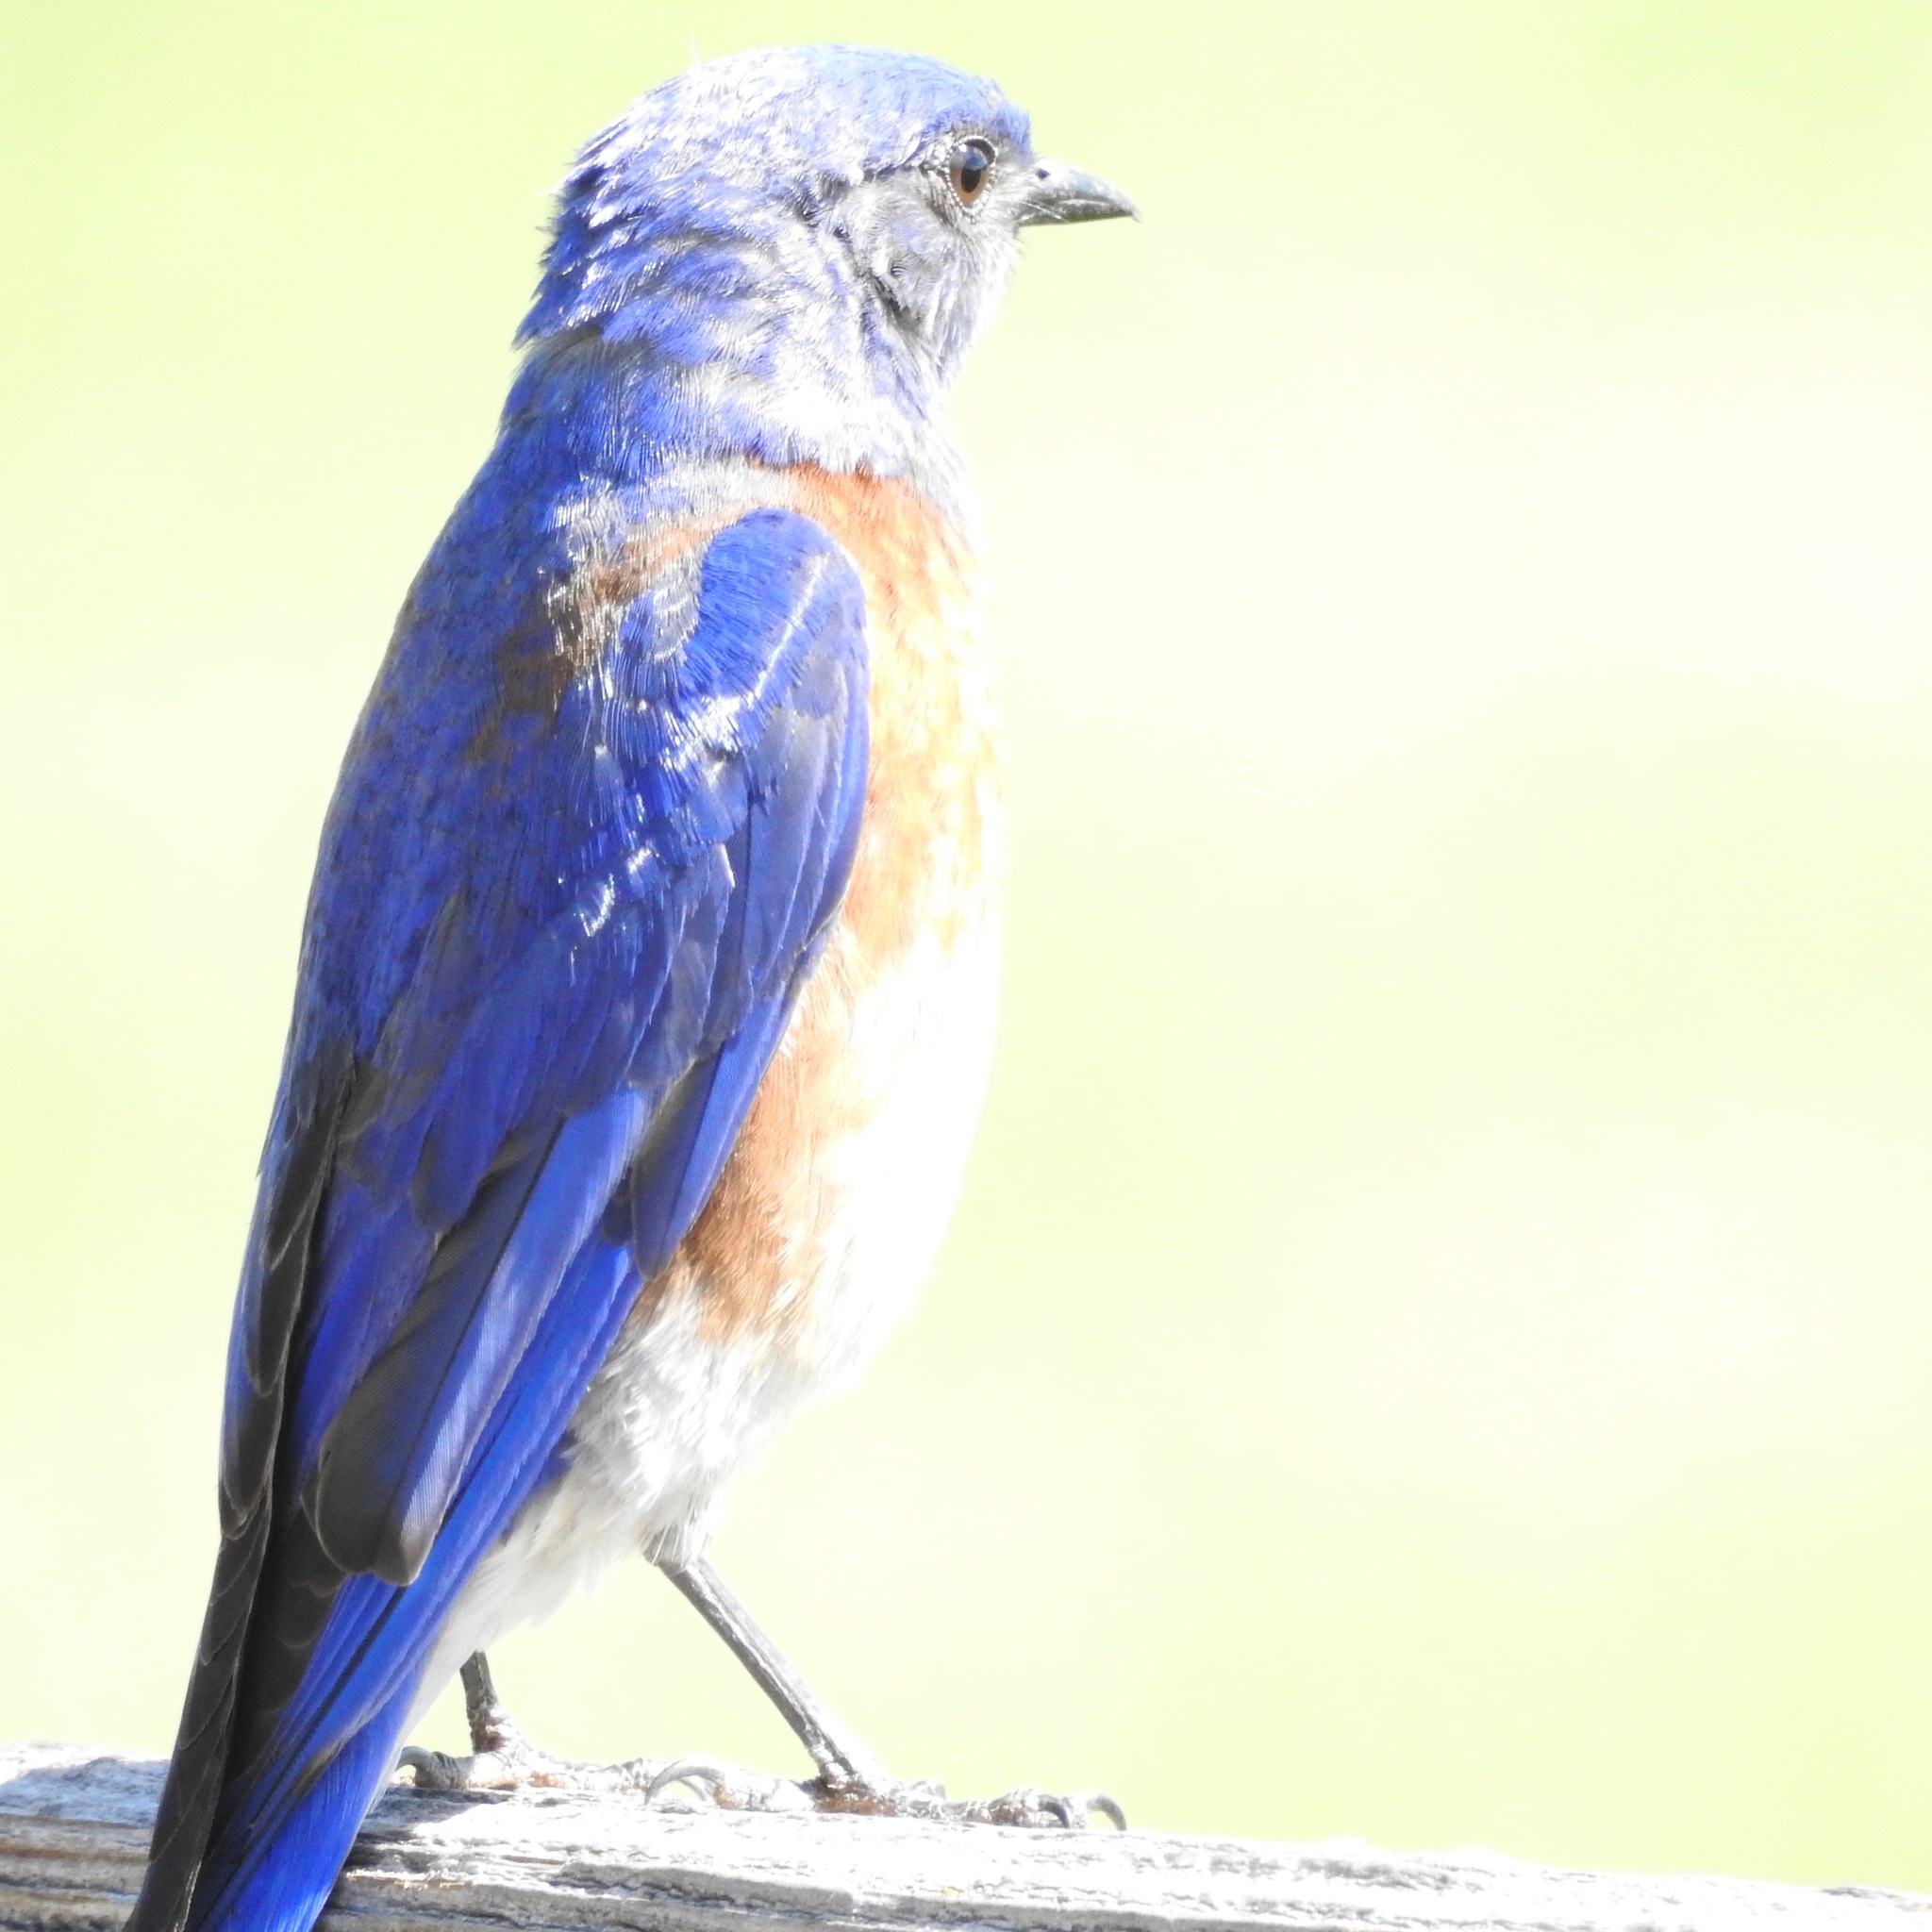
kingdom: Animalia
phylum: Chordata
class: Aves
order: Passeriformes
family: Turdidae
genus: Sialia
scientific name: Sialia mexicana
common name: Western bluebird
